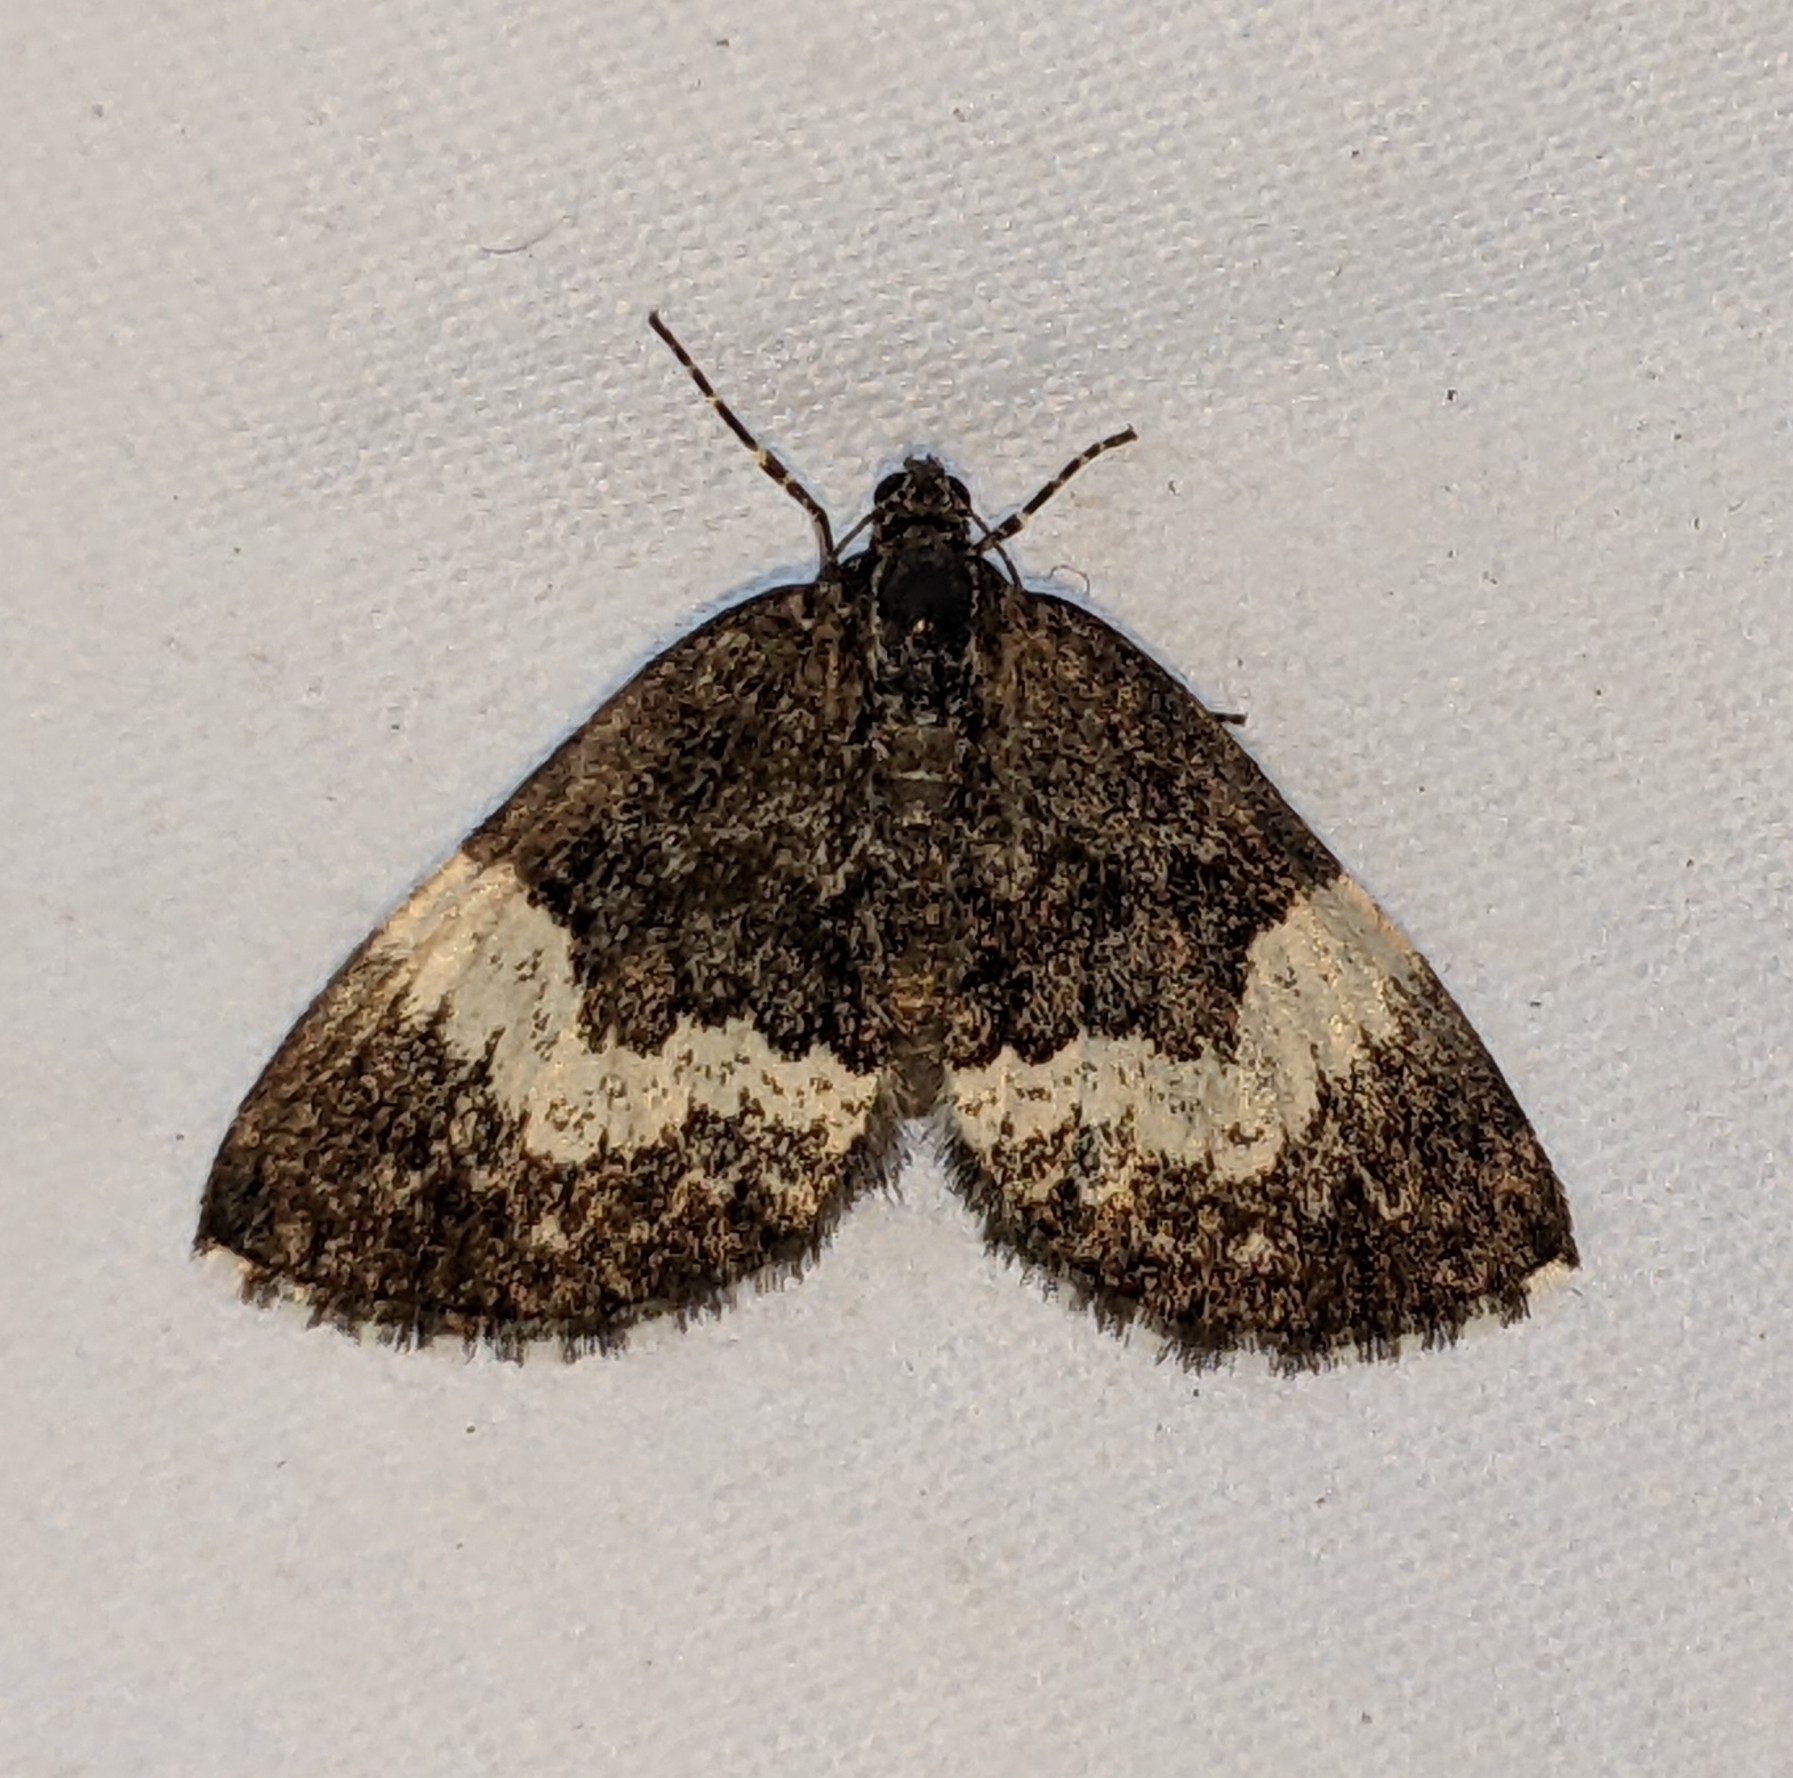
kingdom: Animalia
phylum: Arthropoda
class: Insecta
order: Lepidoptera
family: Geometridae
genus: Spargania
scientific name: Spargania luctuata
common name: White-banded carpet
